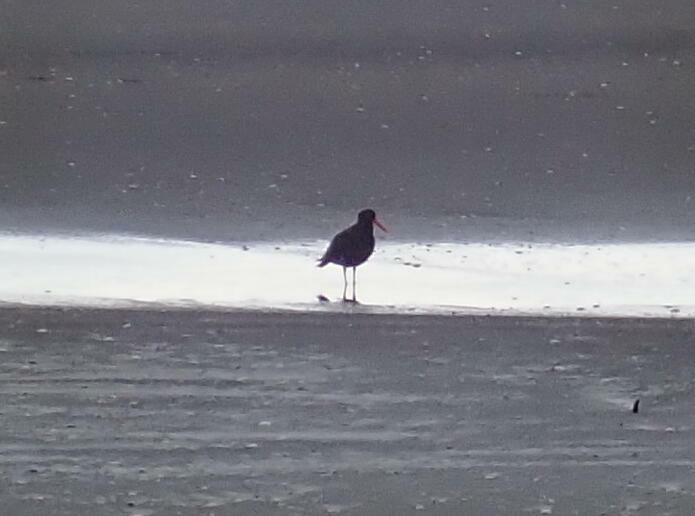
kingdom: Animalia
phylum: Chordata
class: Aves
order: Charadriiformes
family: Haematopodidae
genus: Haematopus
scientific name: Haematopus unicolor
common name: Variable oystercatcher
